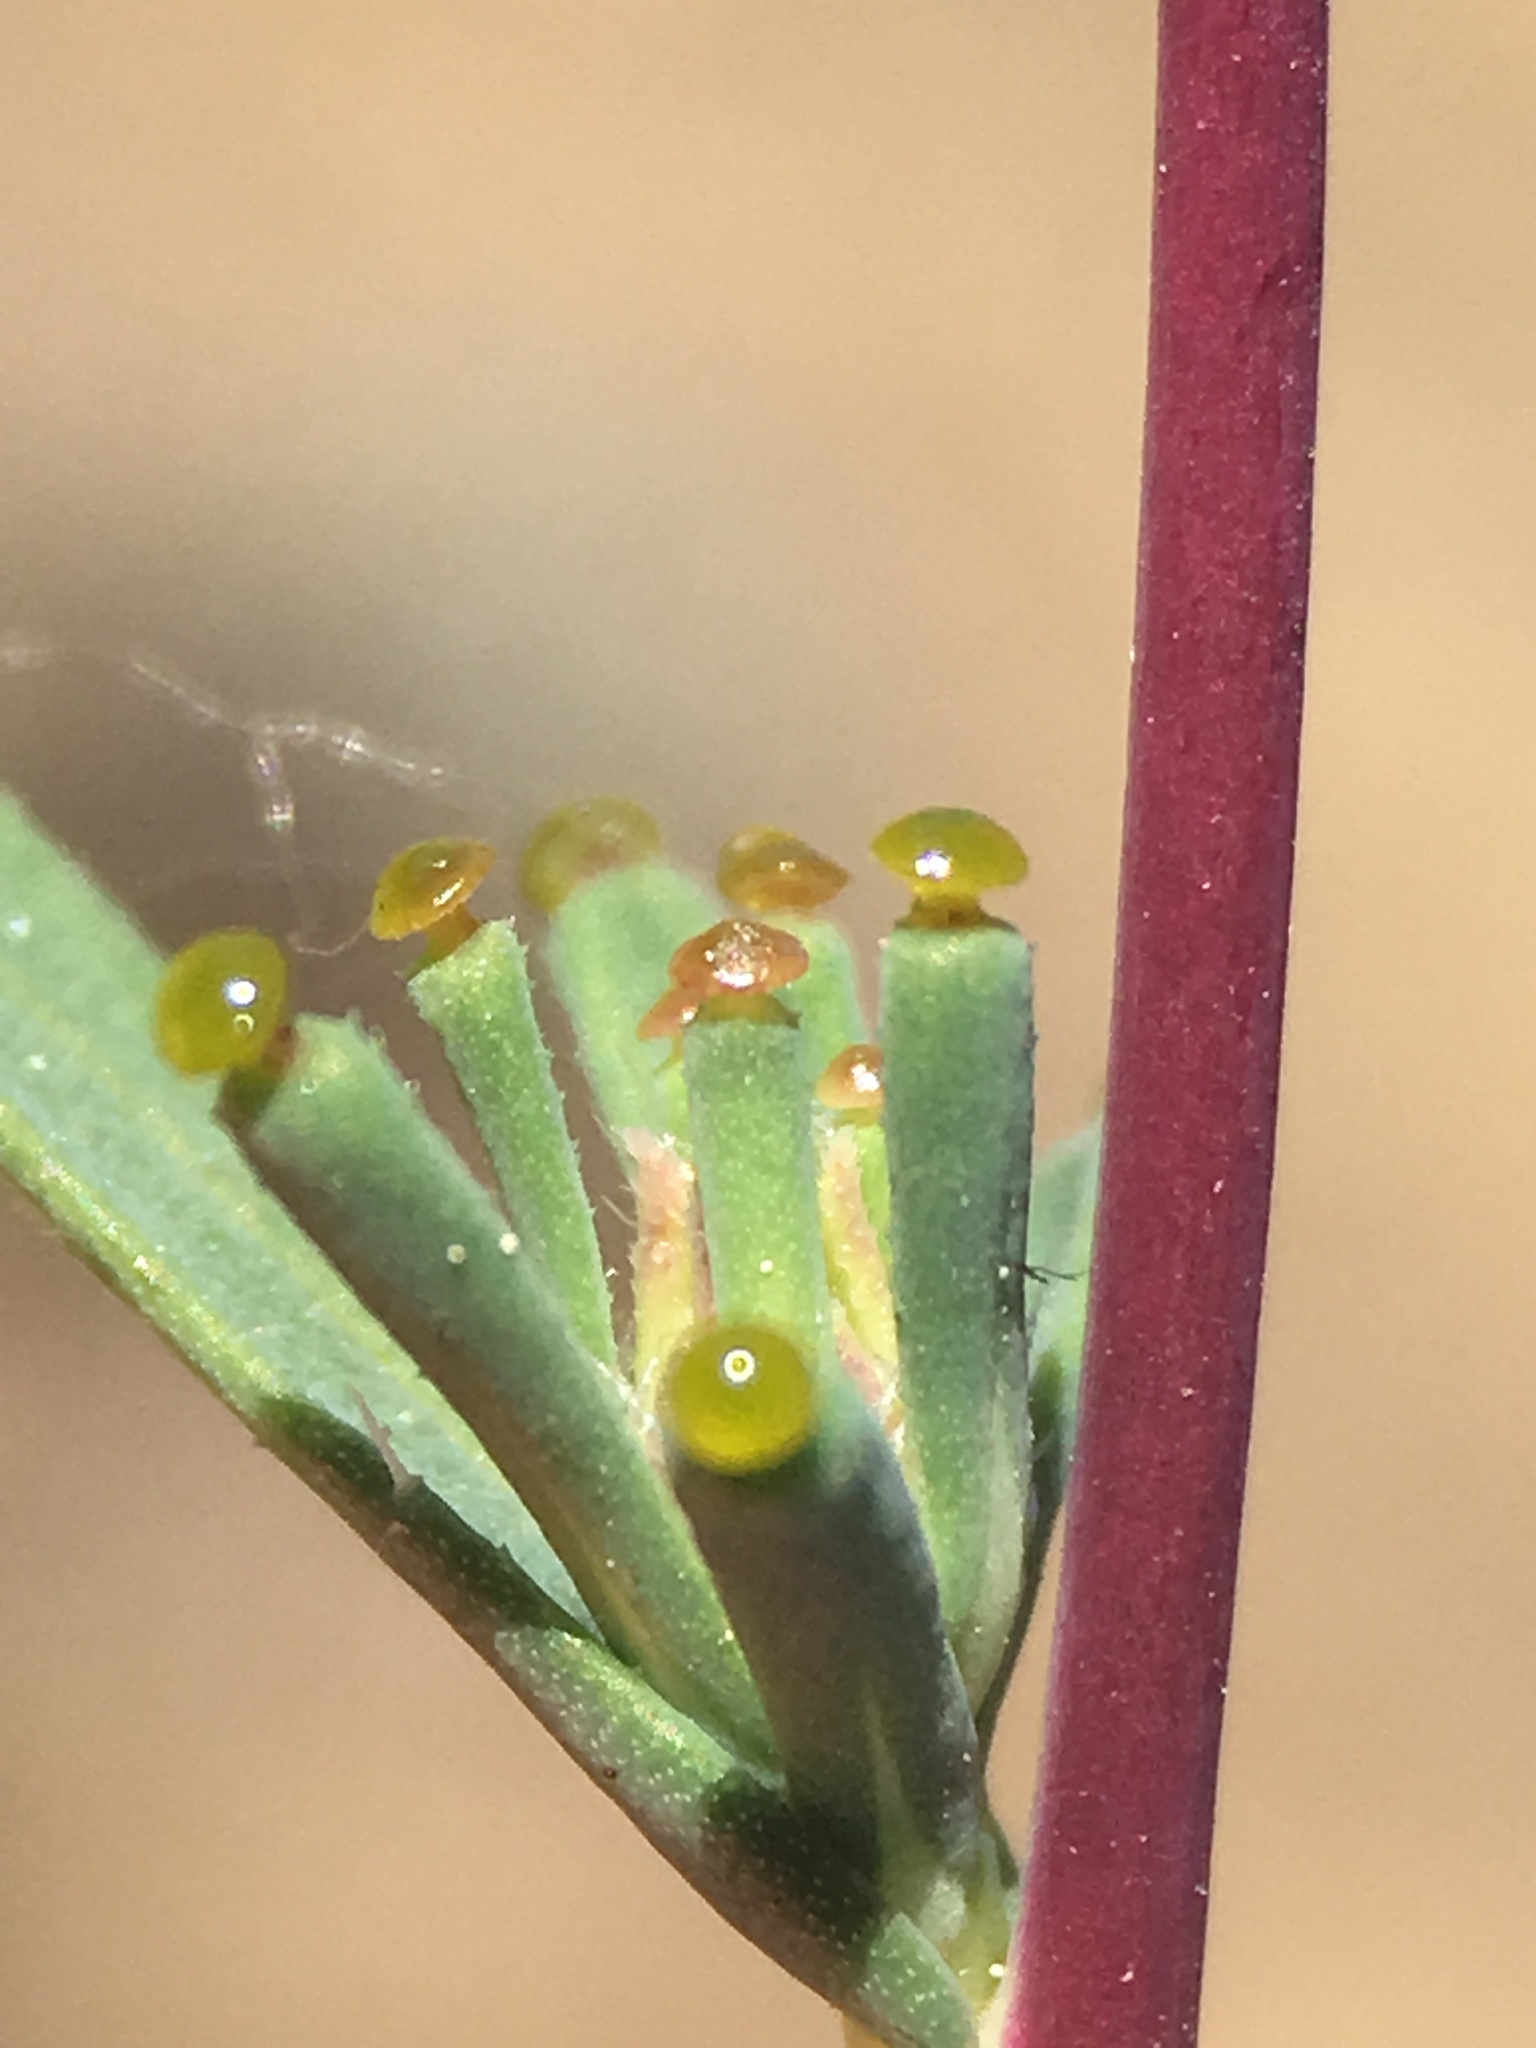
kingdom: Plantae
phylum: Tracheophyta
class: Magnoliopsida
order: Asterales
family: Asteraceae
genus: Calycadenia
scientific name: Calycadenia truncata
